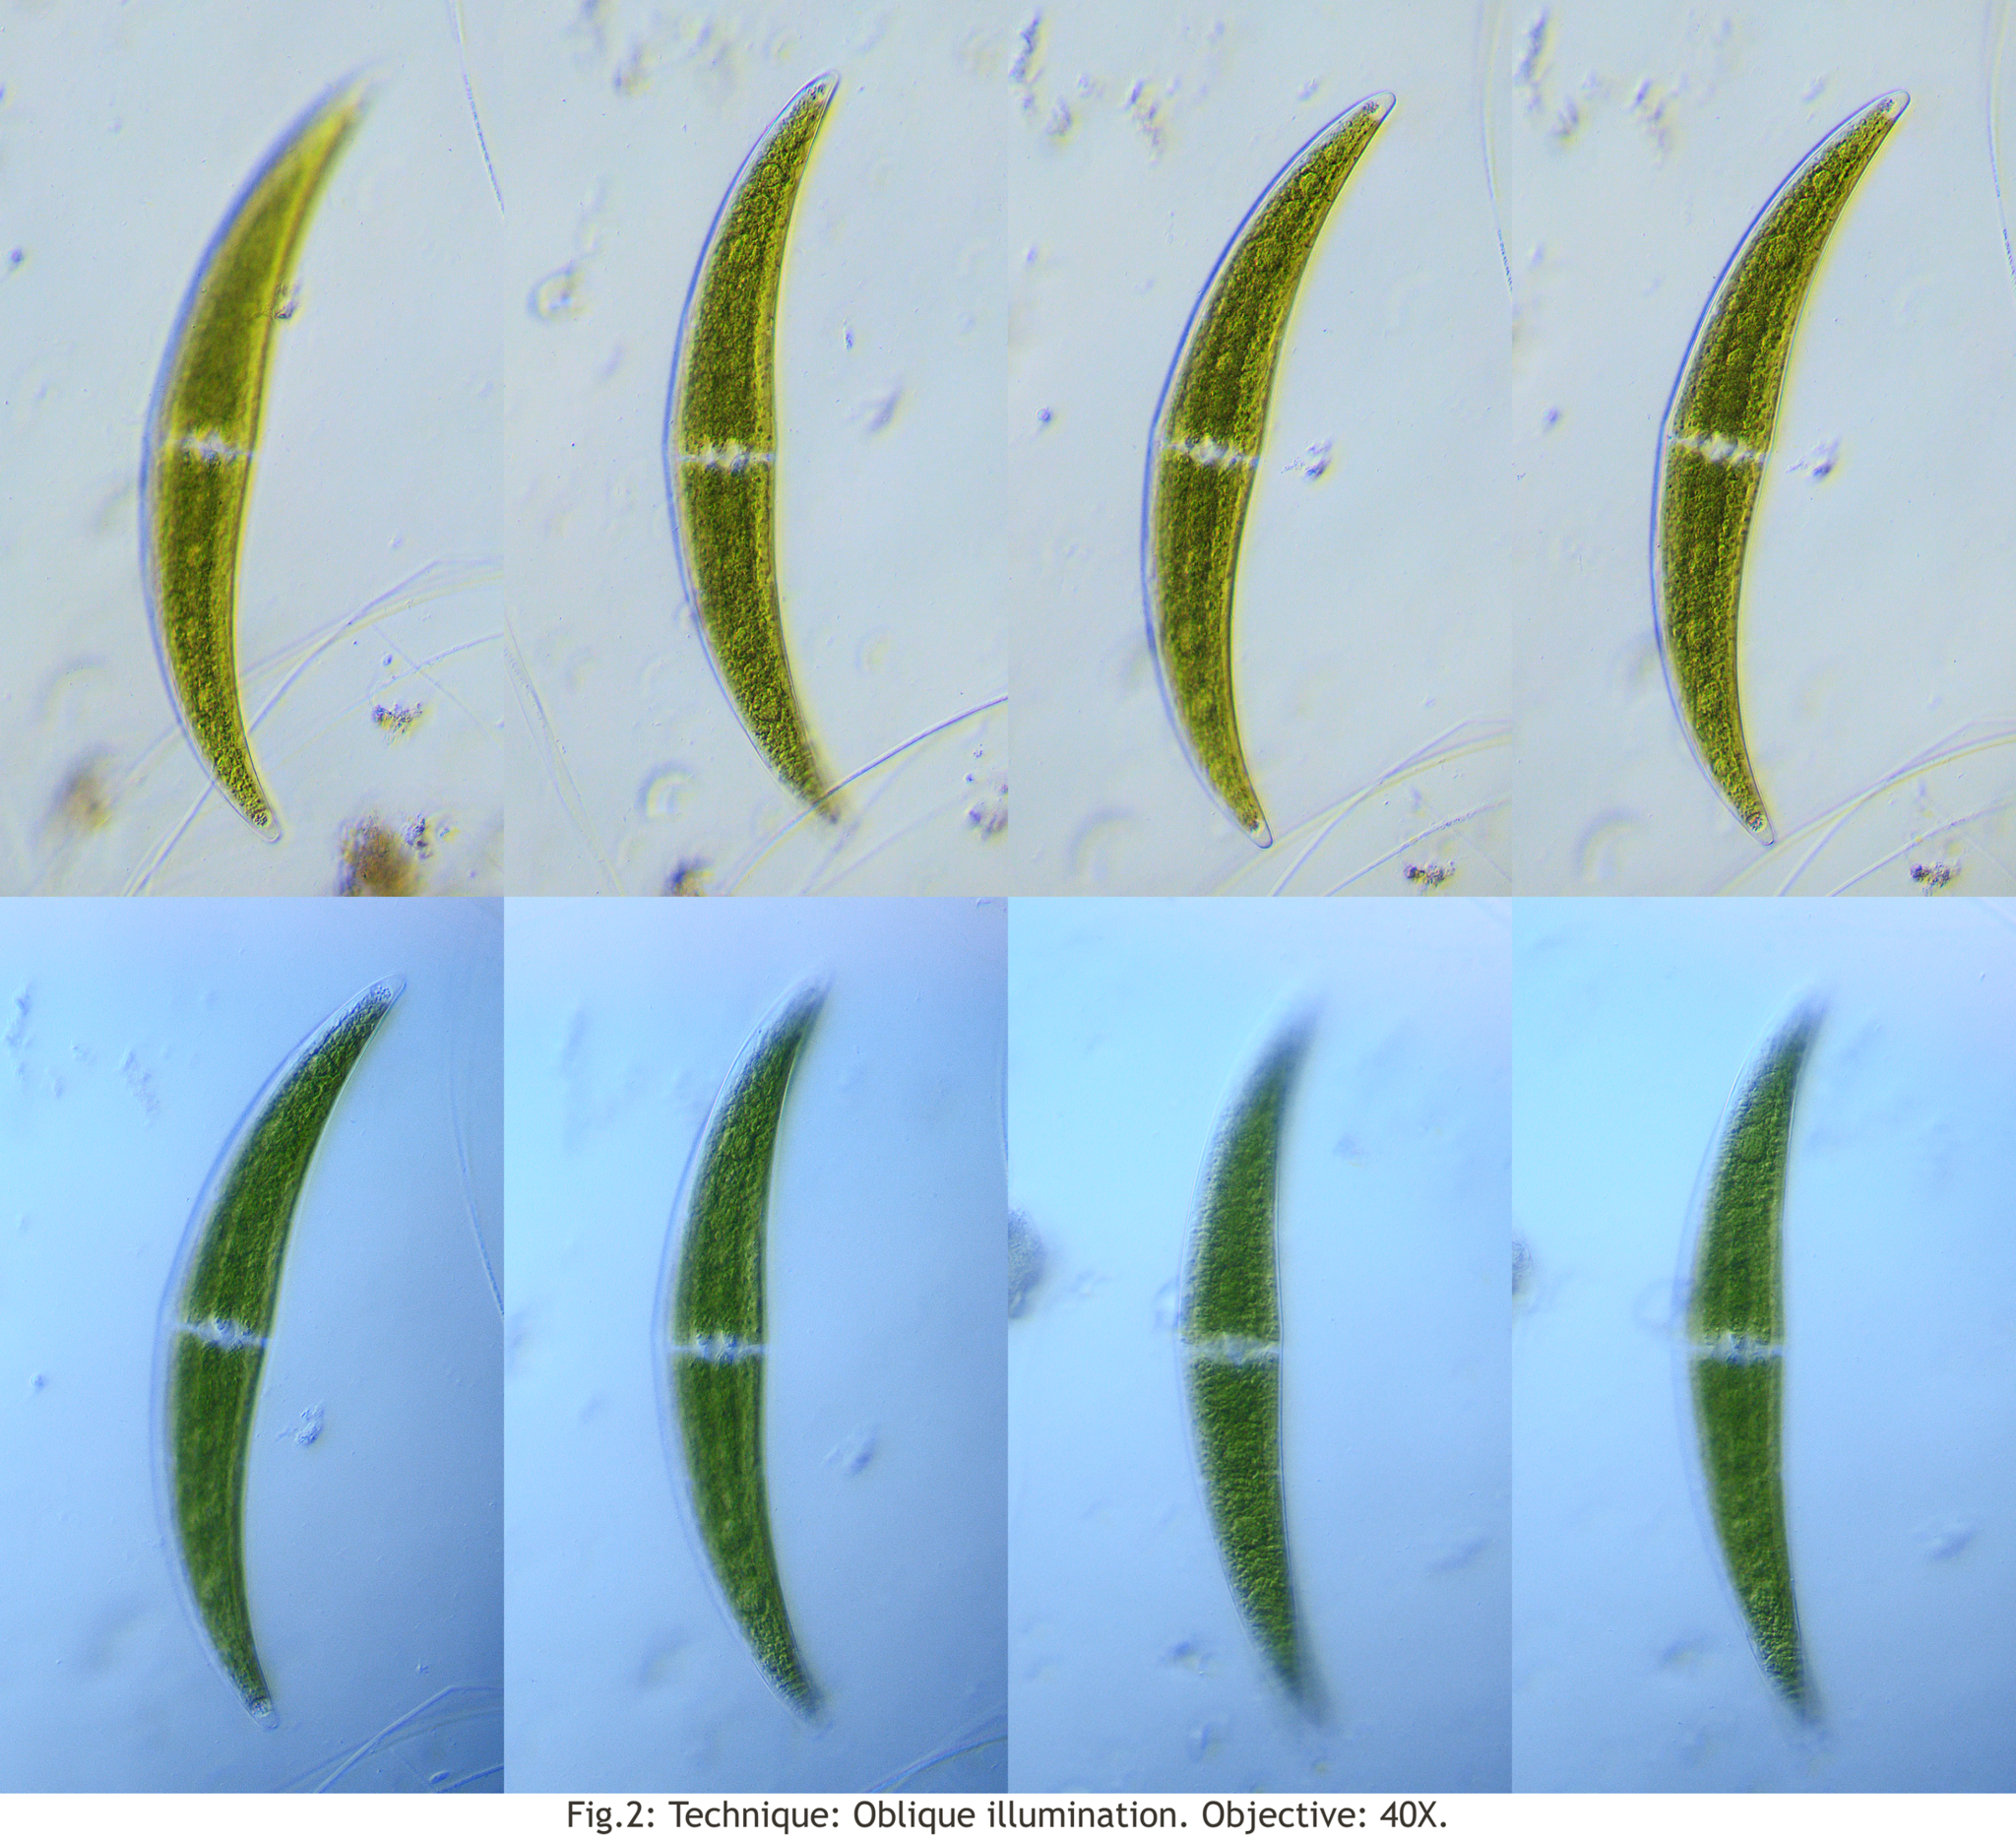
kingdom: Plantae
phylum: Charophyta
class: Zygnematophyceae
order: Zygnematales
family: Closteriaceae
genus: Closterium
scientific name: Closterium moniliferum
